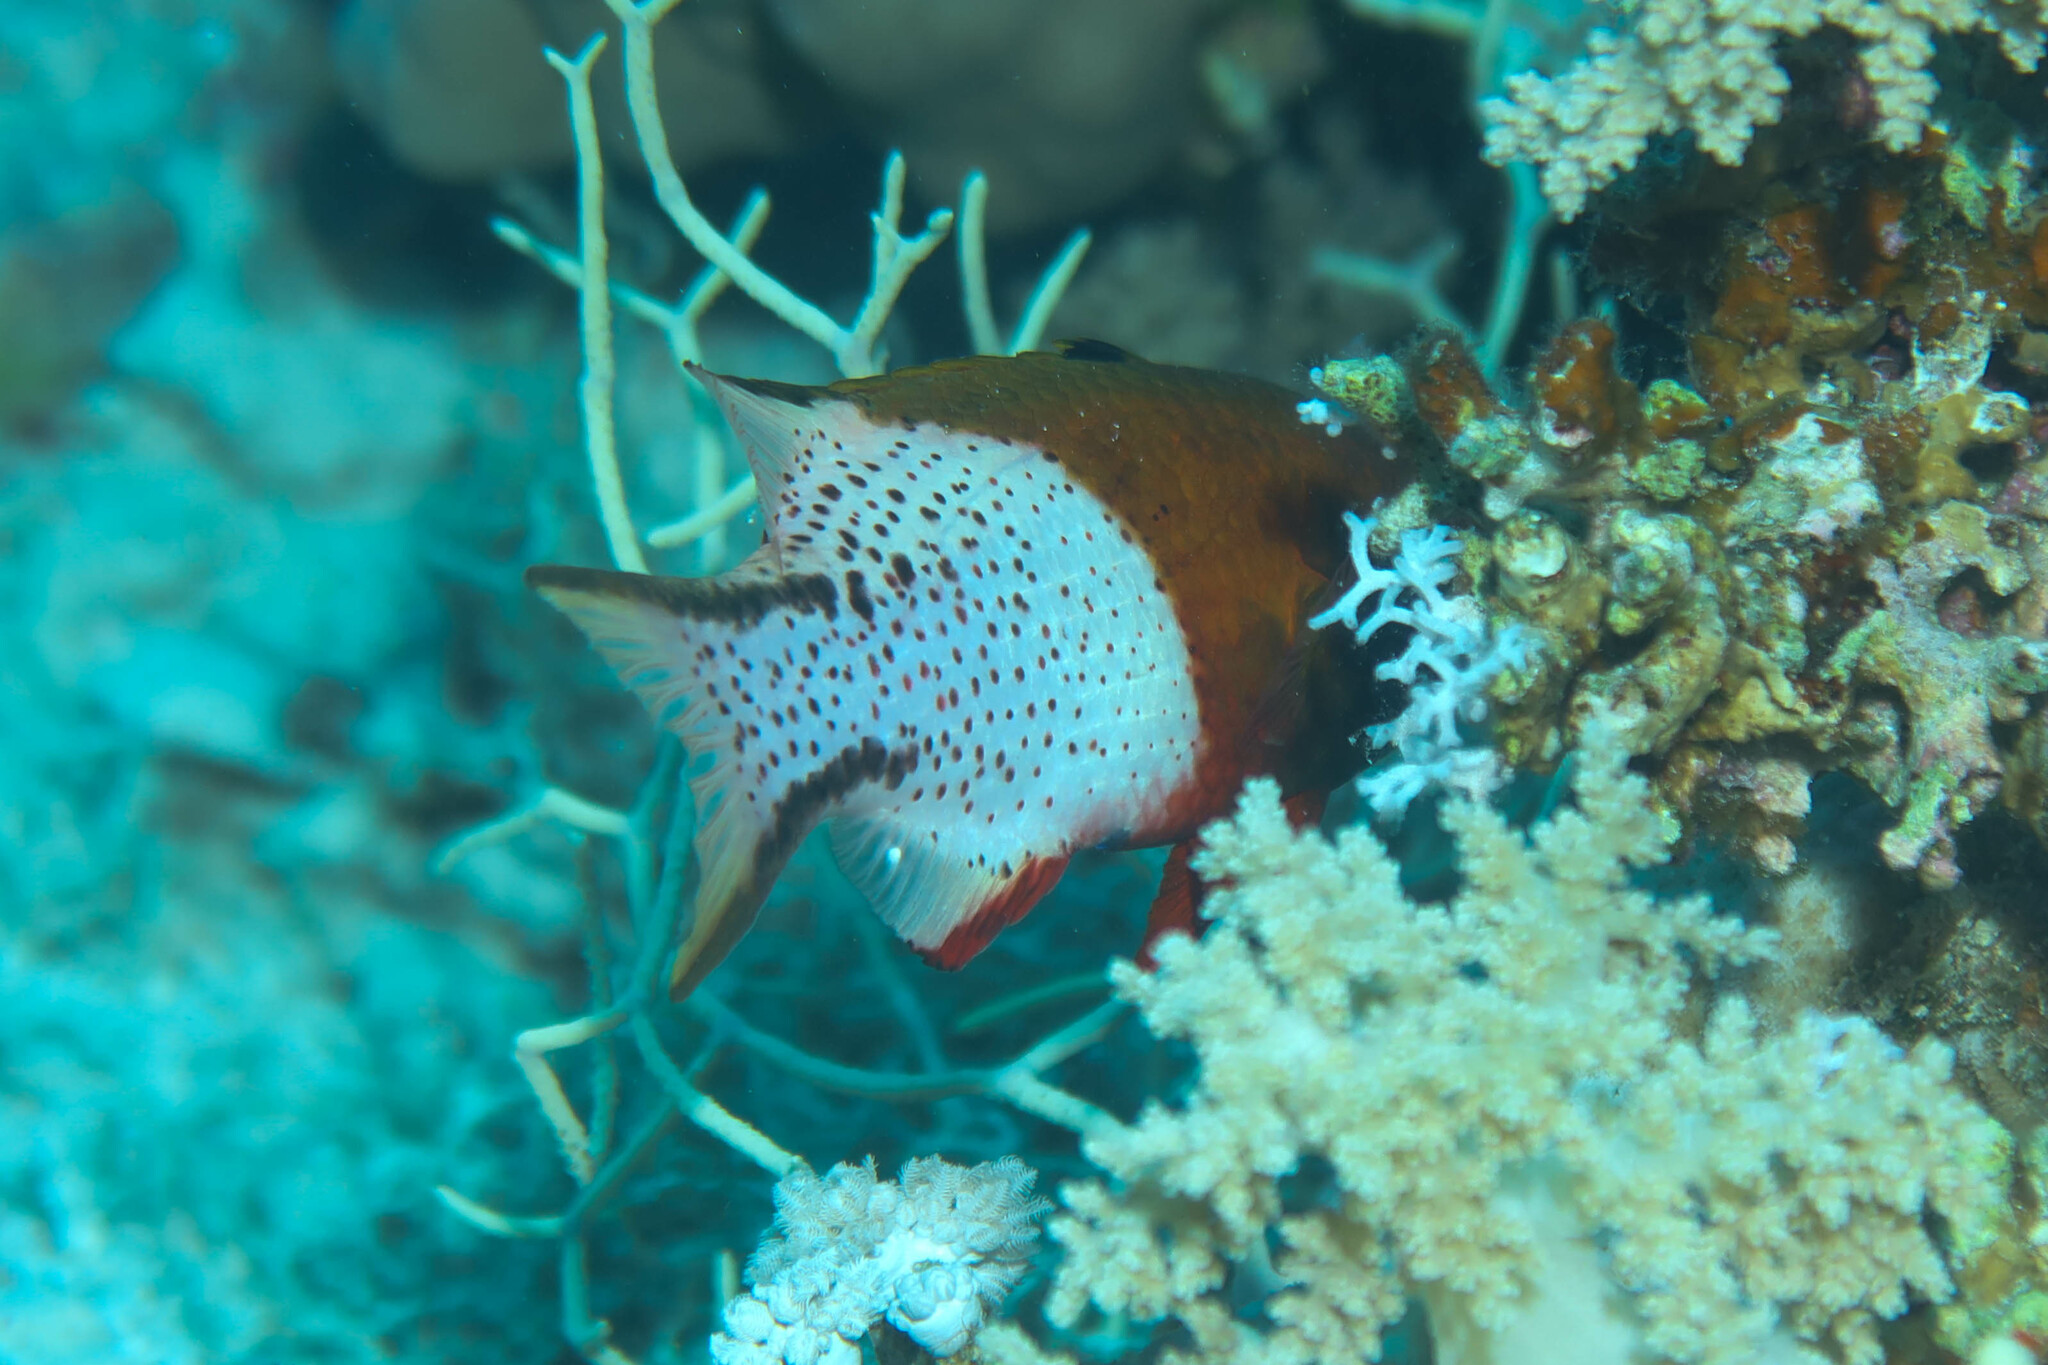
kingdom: Animalia
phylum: Chordata
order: Perciformes
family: Labridae
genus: Bodianus
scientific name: Bodianus anthioides
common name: Lyretail hogfish
